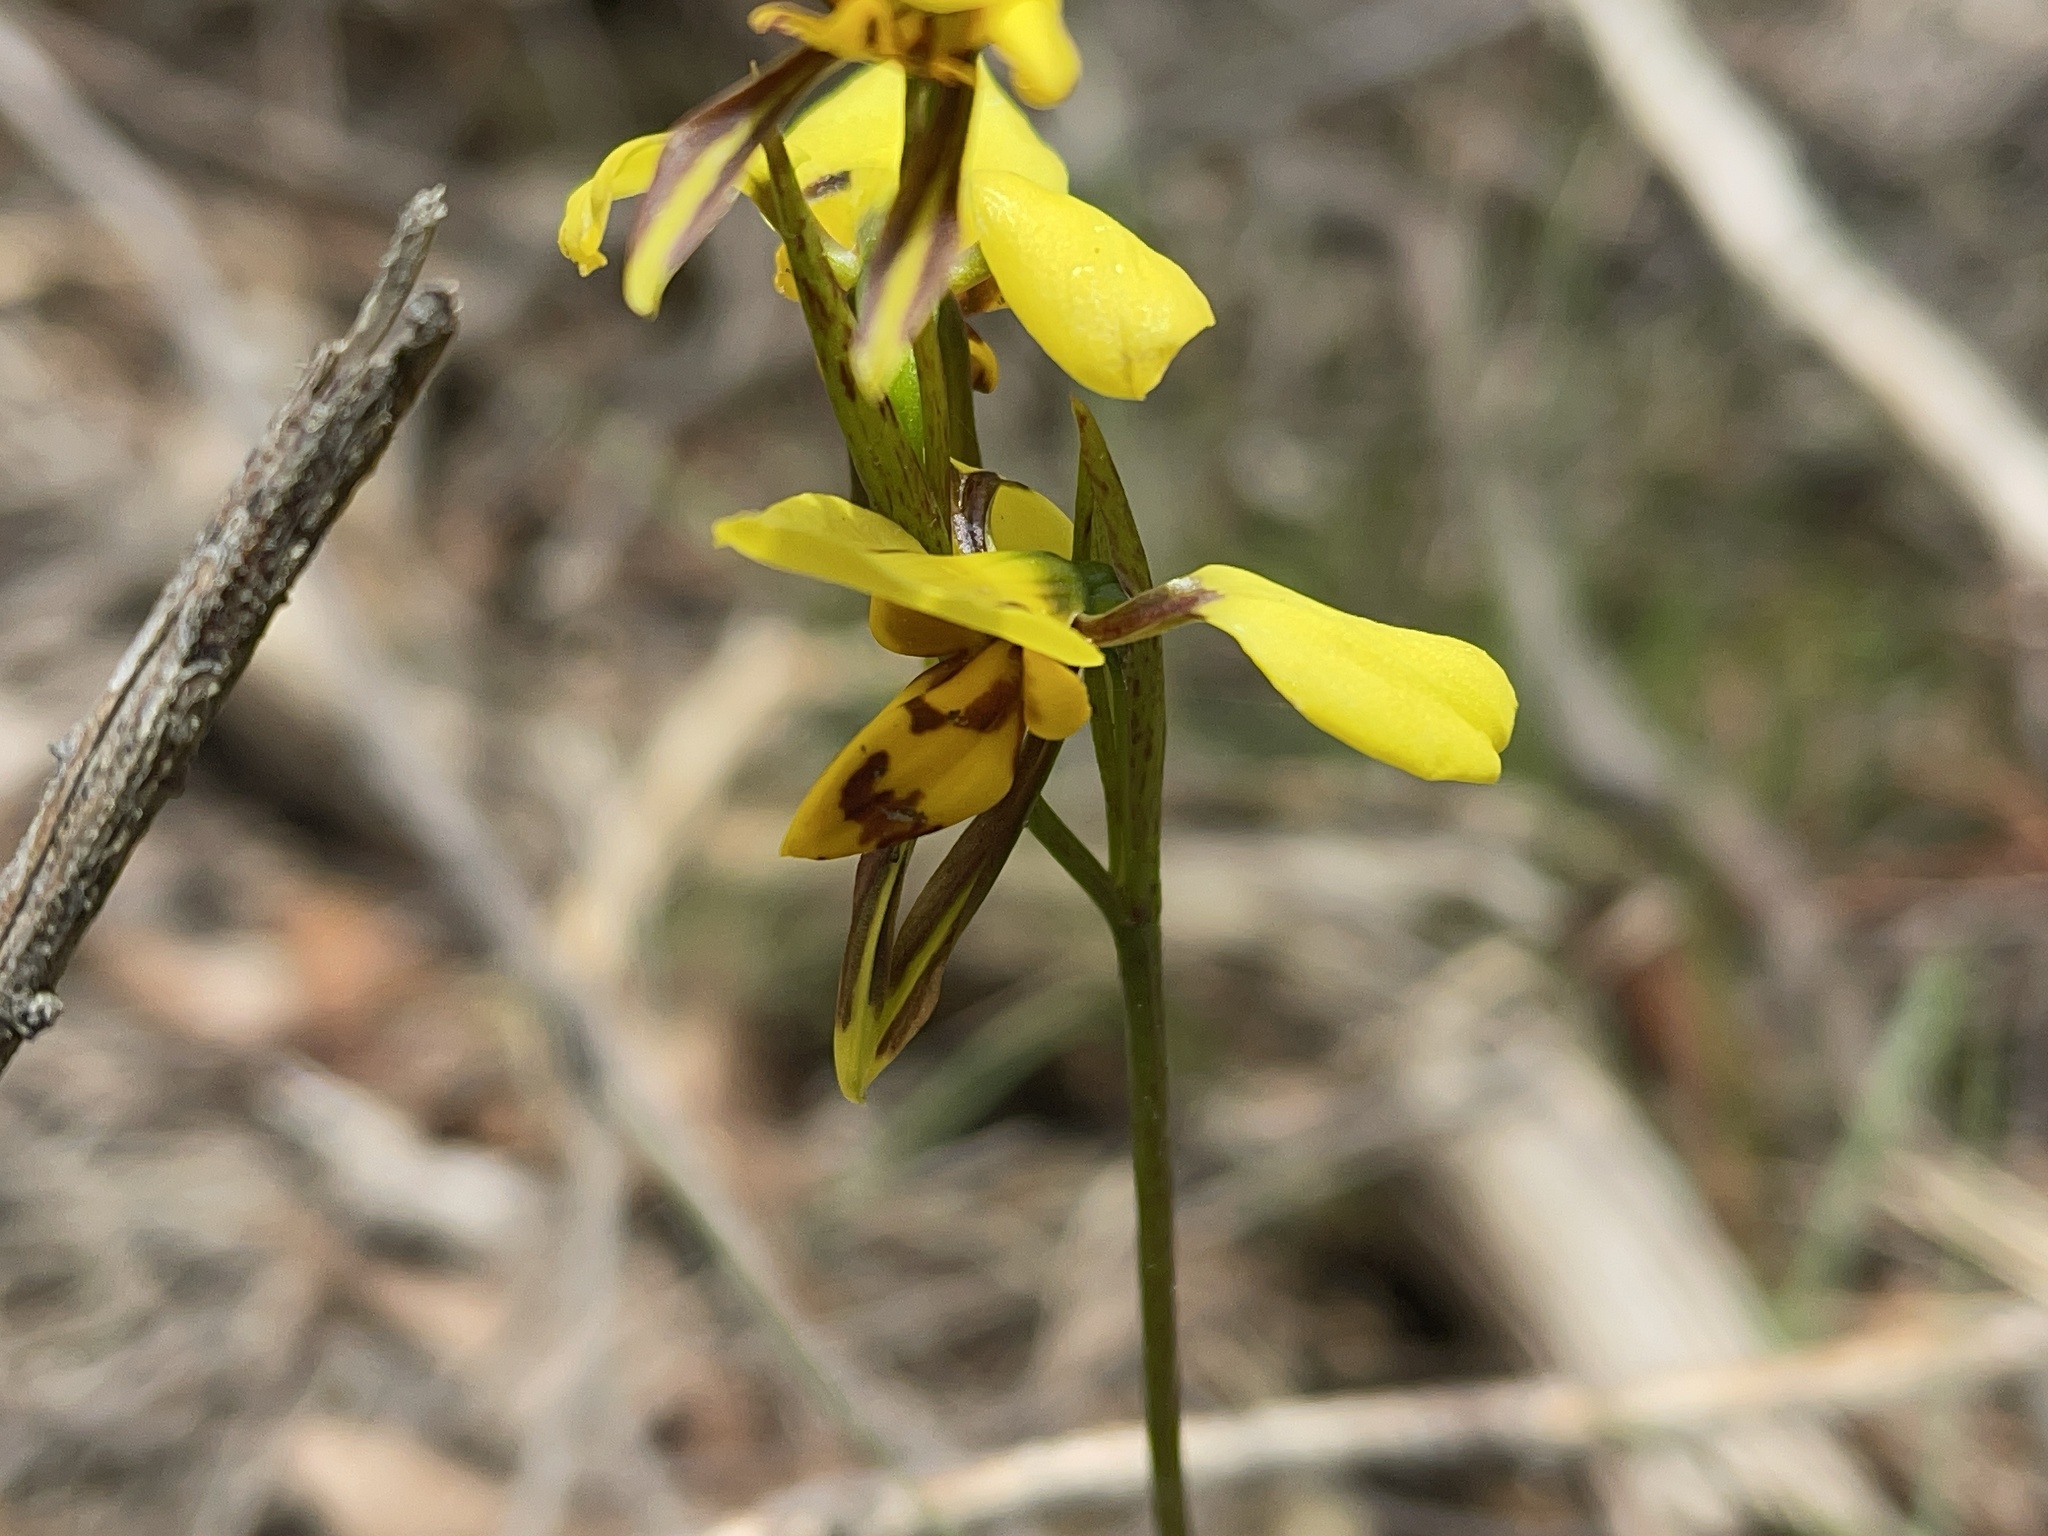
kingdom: Plantae
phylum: Tracheophyta
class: Liliopsida
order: Asparagales
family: Orchidaceae
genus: Diuris
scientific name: Diuris sulphurea
